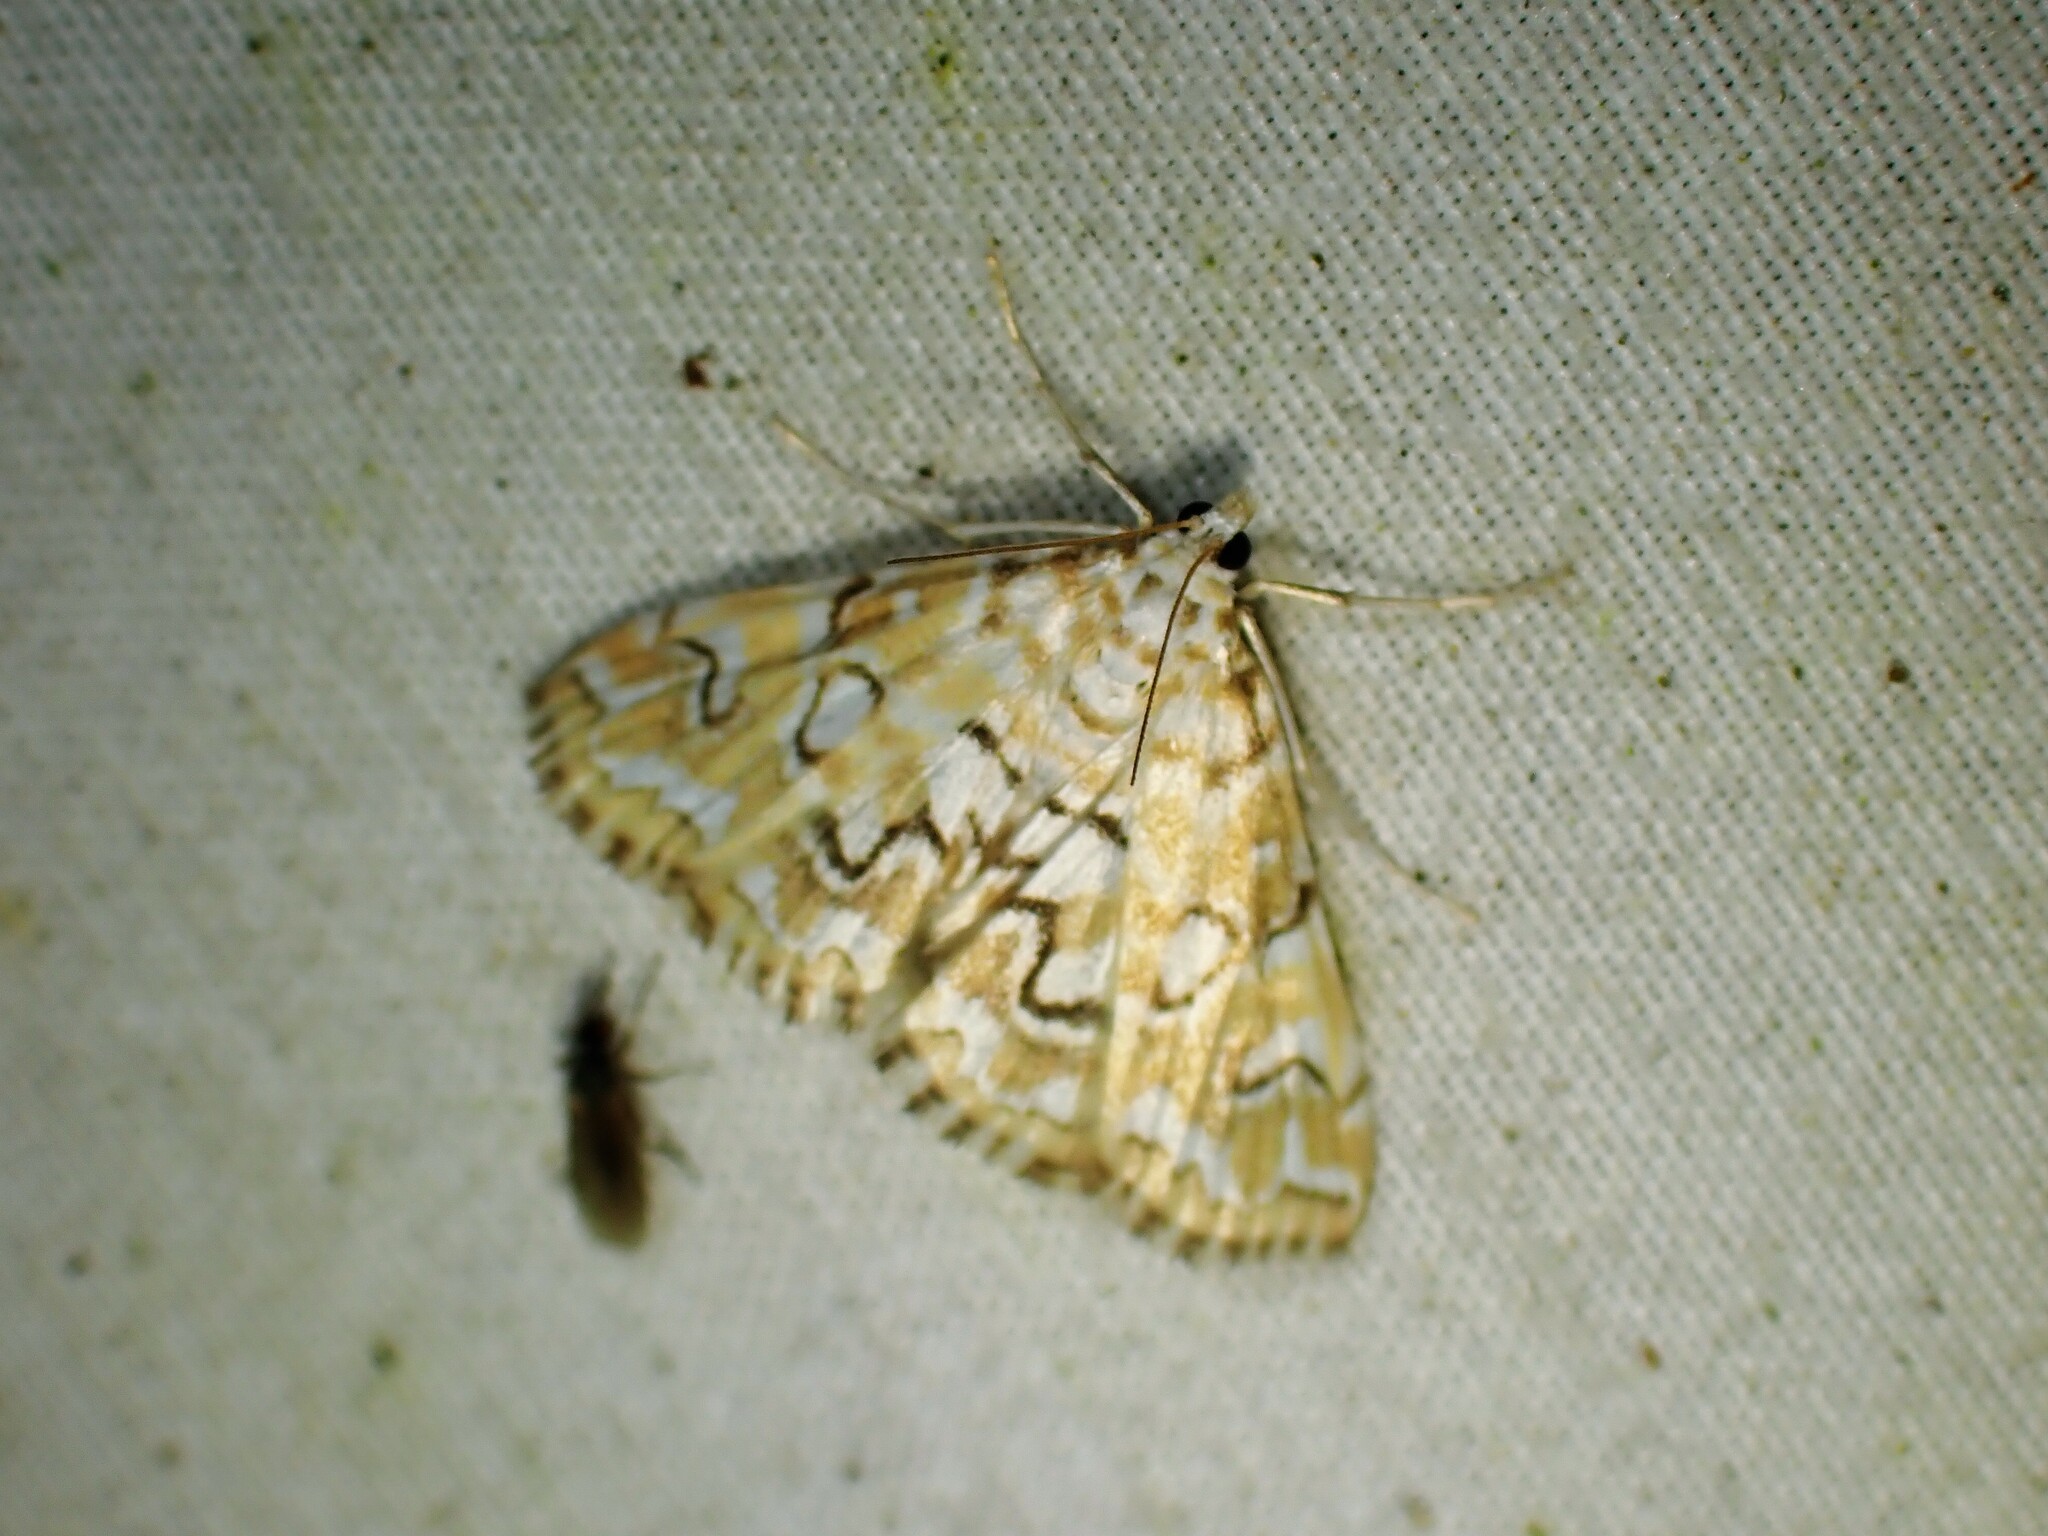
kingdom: Animalia
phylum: Arthropoda
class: Insecta
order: Lepidoptera
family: Crambidae
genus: Elophila
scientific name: Elophila icciusalis
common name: Pondside pyralid moth
